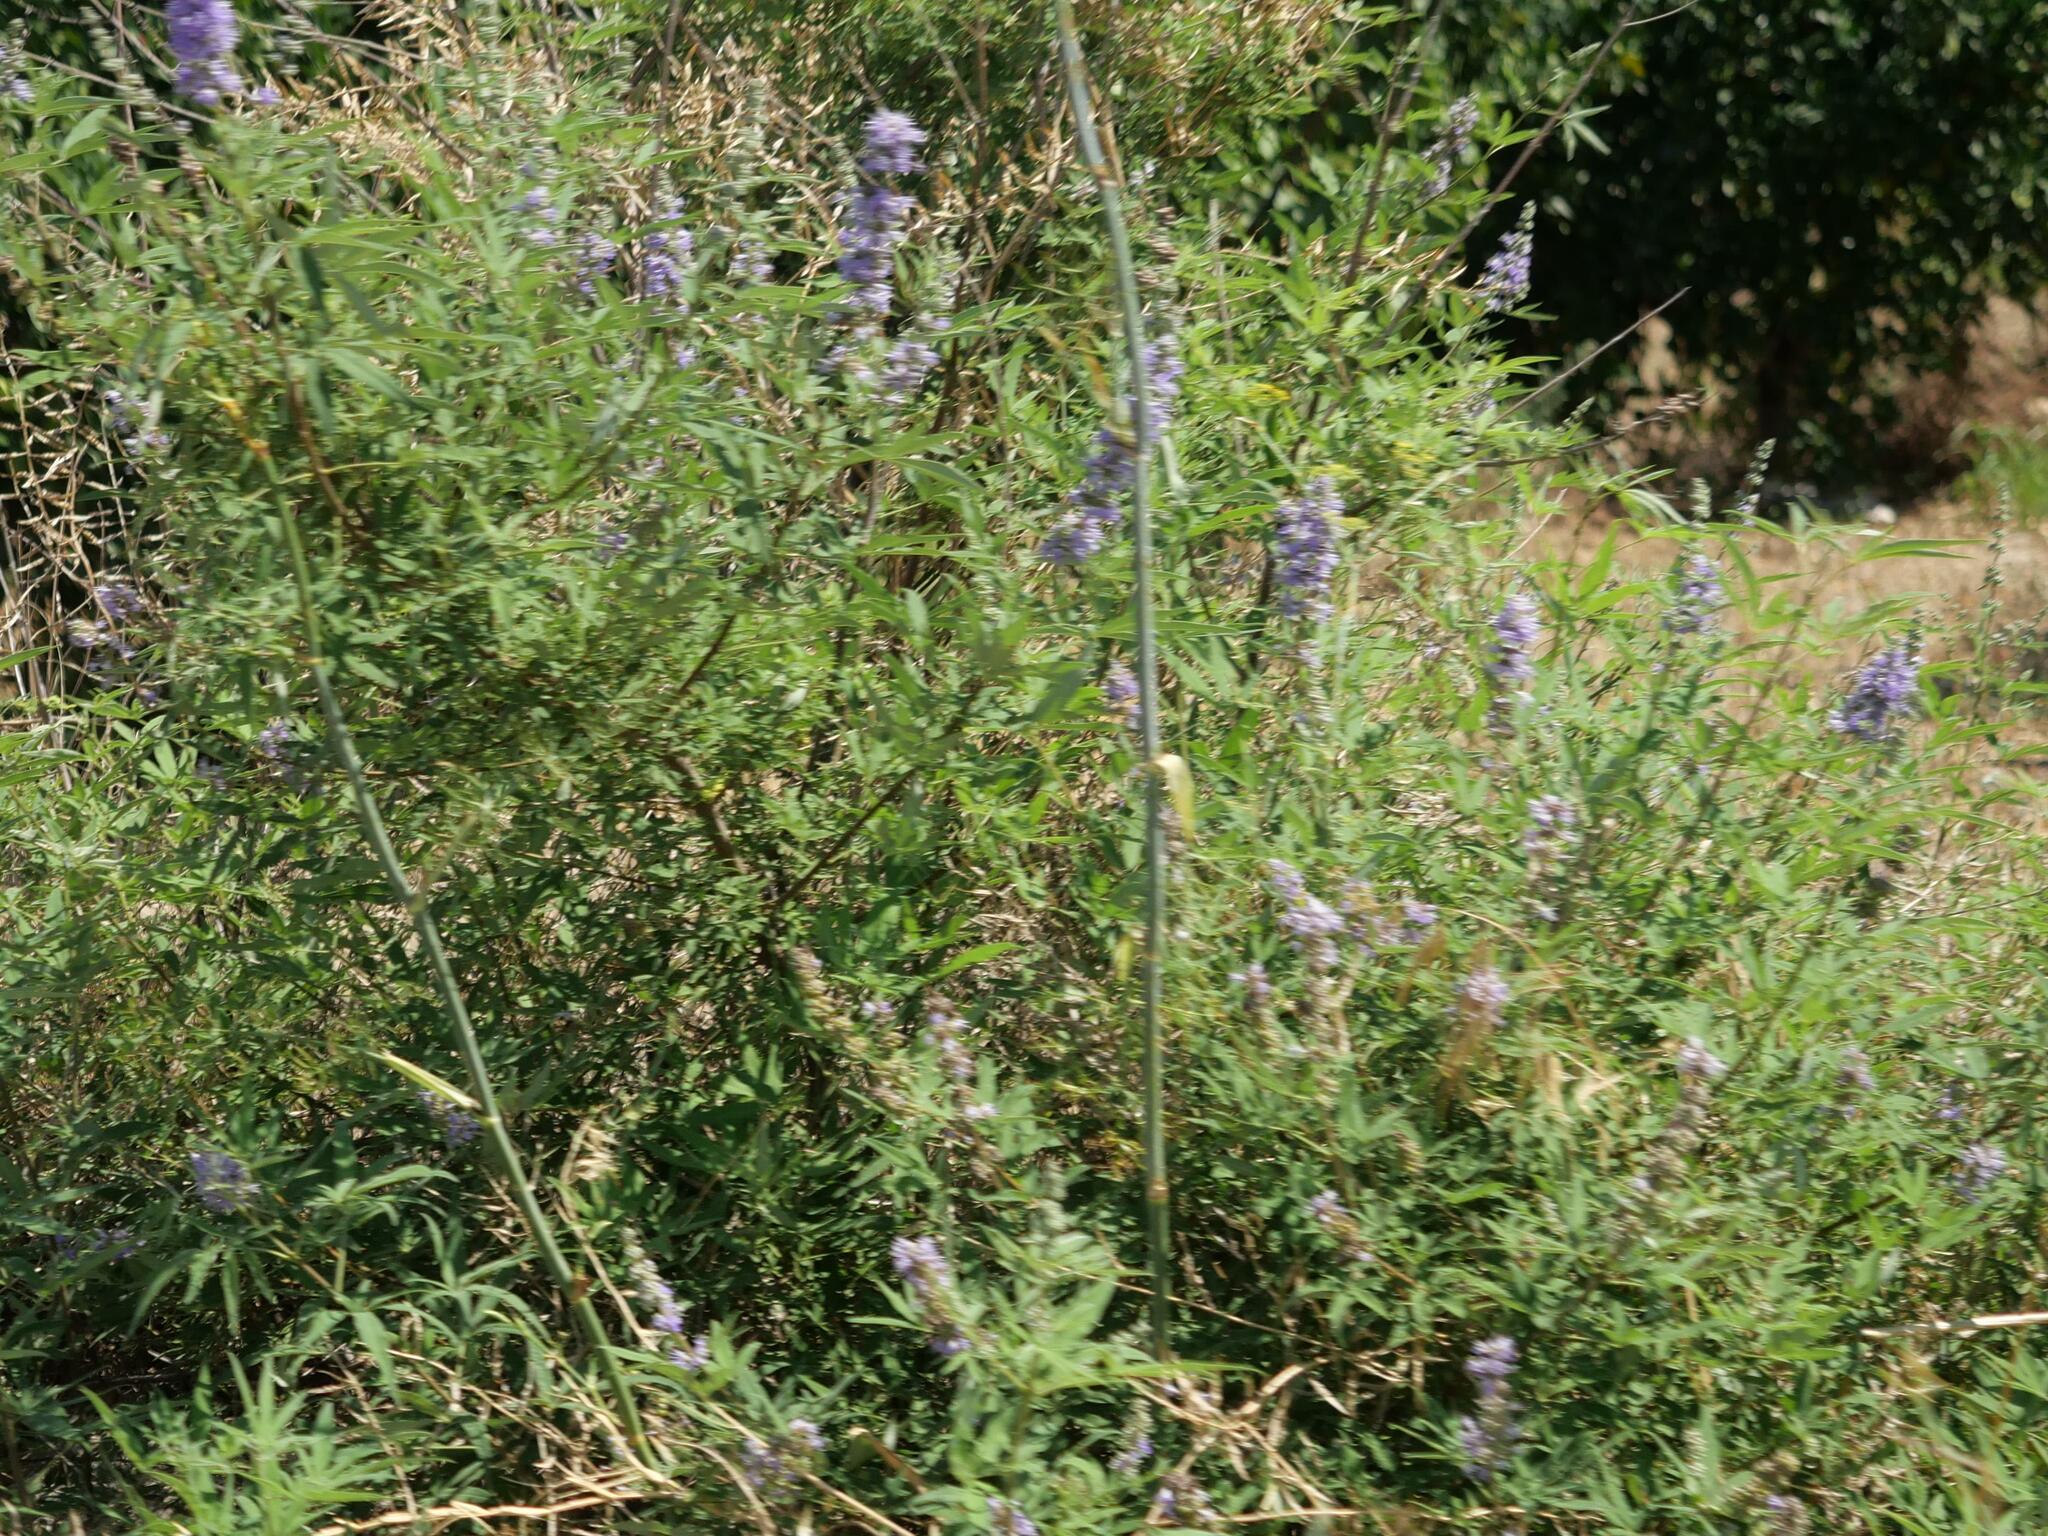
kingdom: Plantae
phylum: Tracheophyta
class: Magnoliopsida
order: Lamiales
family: Lamiaceae
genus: Vitex
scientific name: Vitex agnus-castus
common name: Chasteberry
